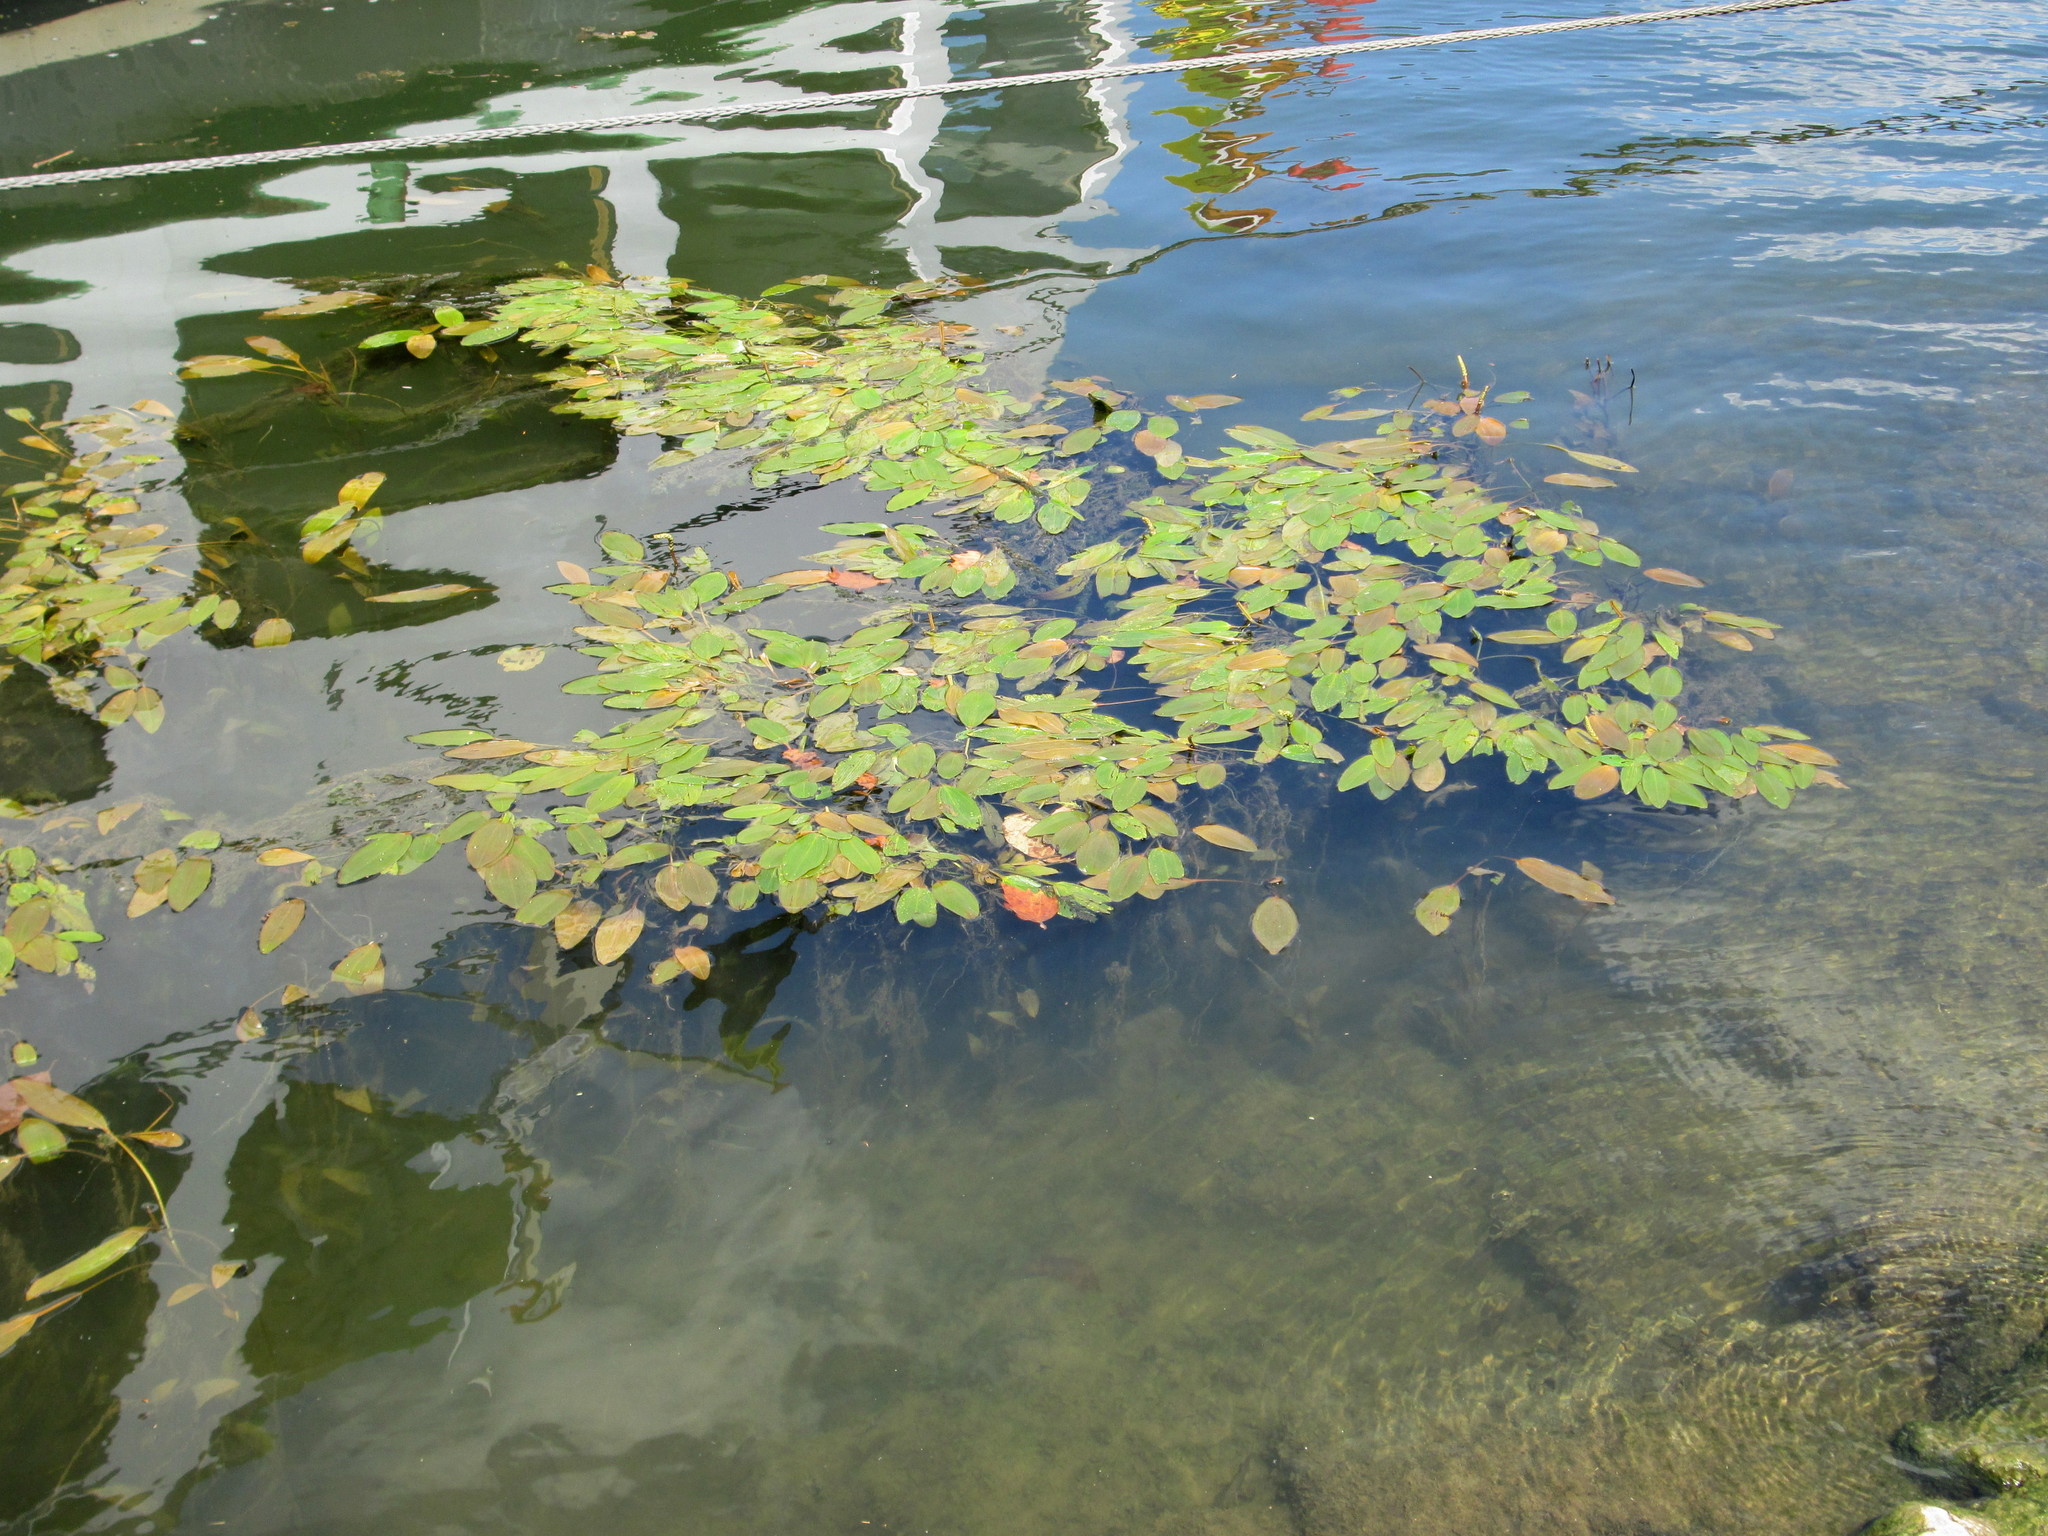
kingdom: Plantae
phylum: Tracheophyta
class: Liliopsida
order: Alismatales
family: Potamogetonaceae
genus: Potamogeton
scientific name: Potamogeton natans
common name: Broad-leaved pondweed
